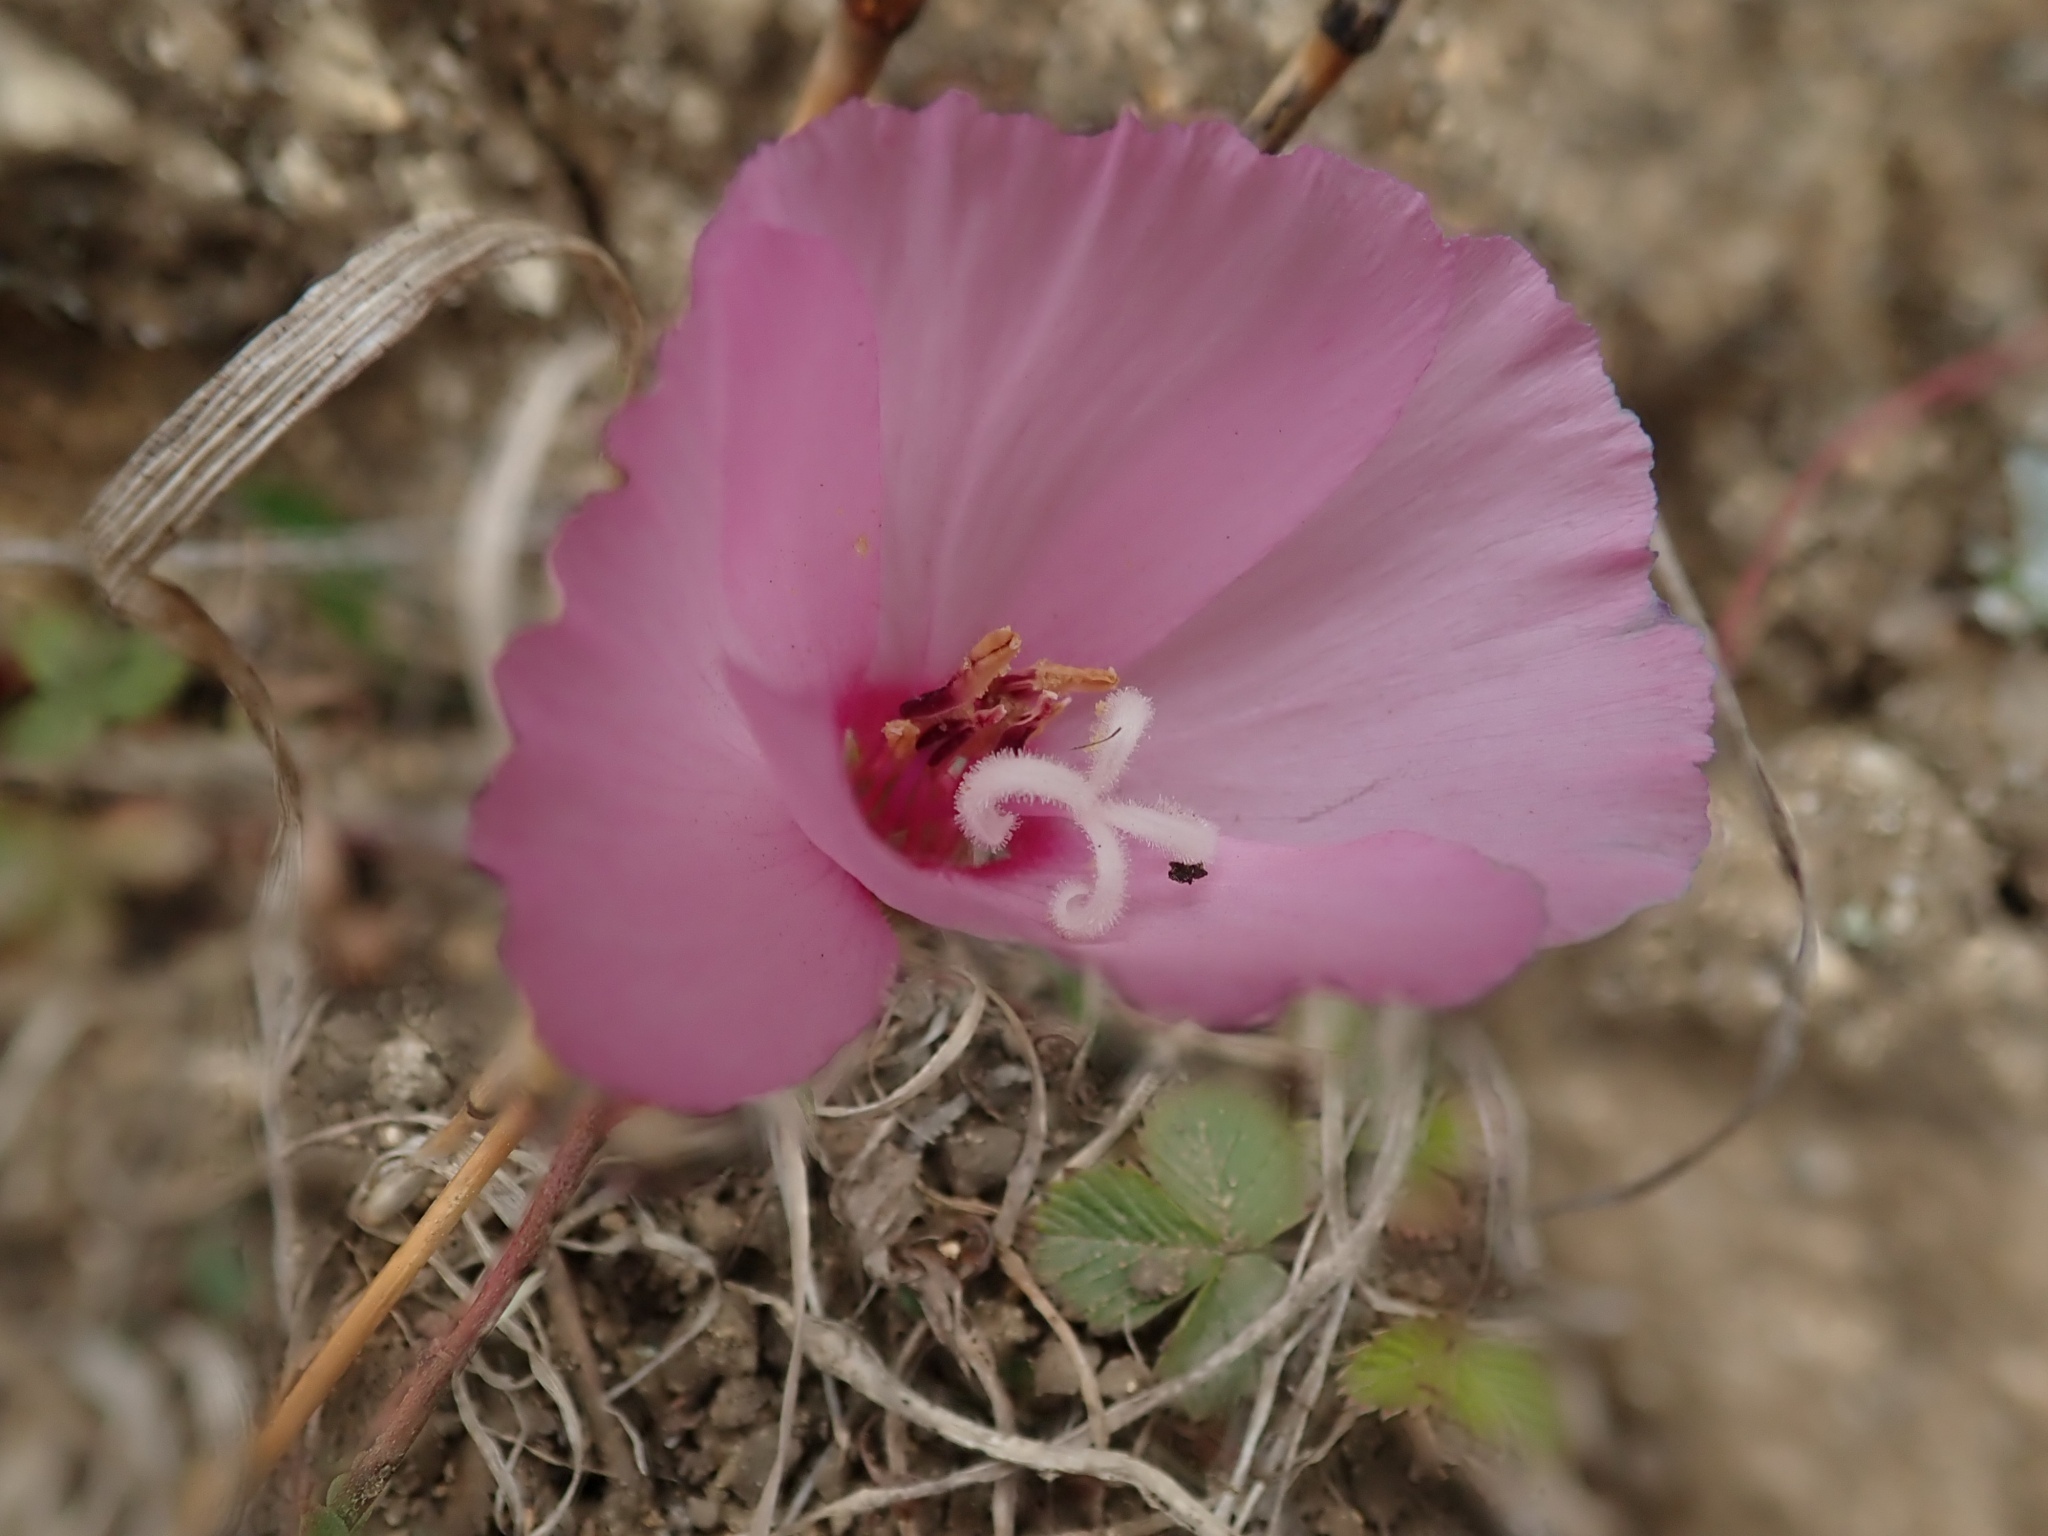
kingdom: Plantae
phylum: Tracheophyta
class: Magnoliopsida
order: Myrtales
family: Onagraceae
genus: Clarkia
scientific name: Clarkia rubicunda
